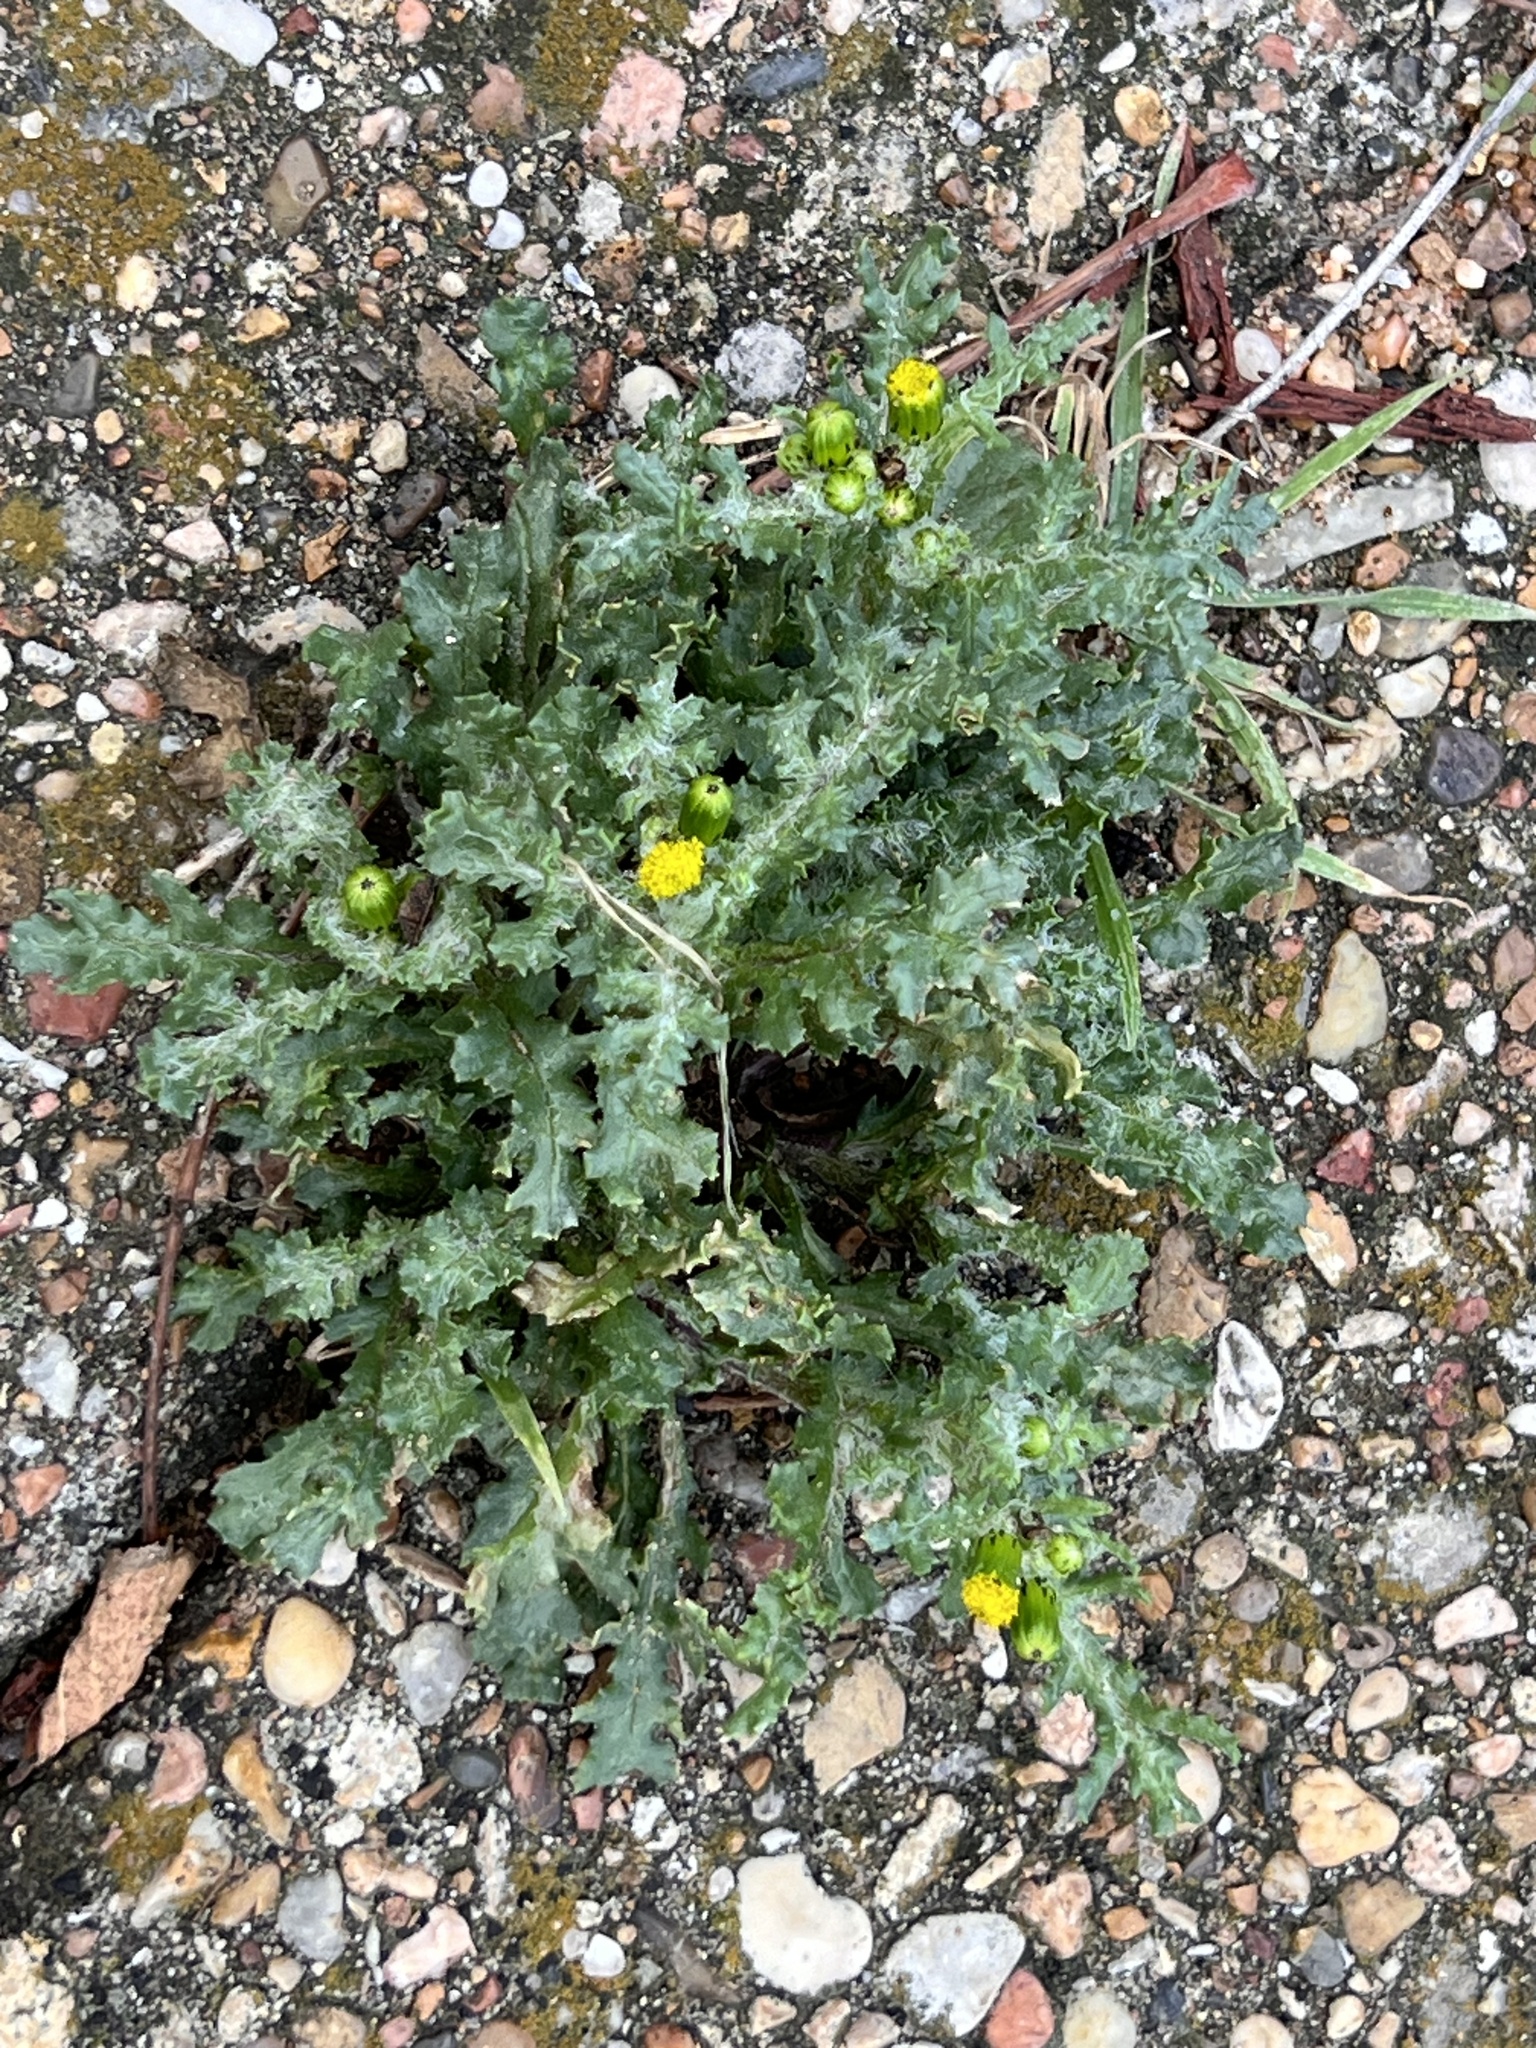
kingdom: Plantae
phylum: Tracheophyta
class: Magnoliopsida
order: Asterales
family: Asteraceae
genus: Senecio
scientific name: Senecio vulgaris
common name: Old-man-in-the-spring
